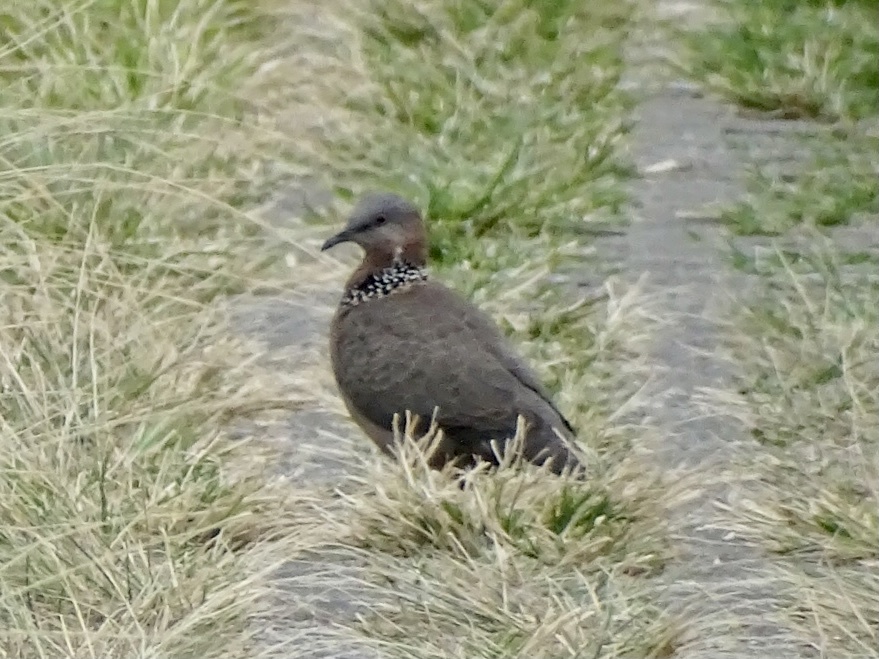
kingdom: Animalia
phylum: Chordata
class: Aves
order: Columbiformes
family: Columbidae
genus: Spilopelia
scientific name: Spilopelia chinensis
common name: Spotted dove
